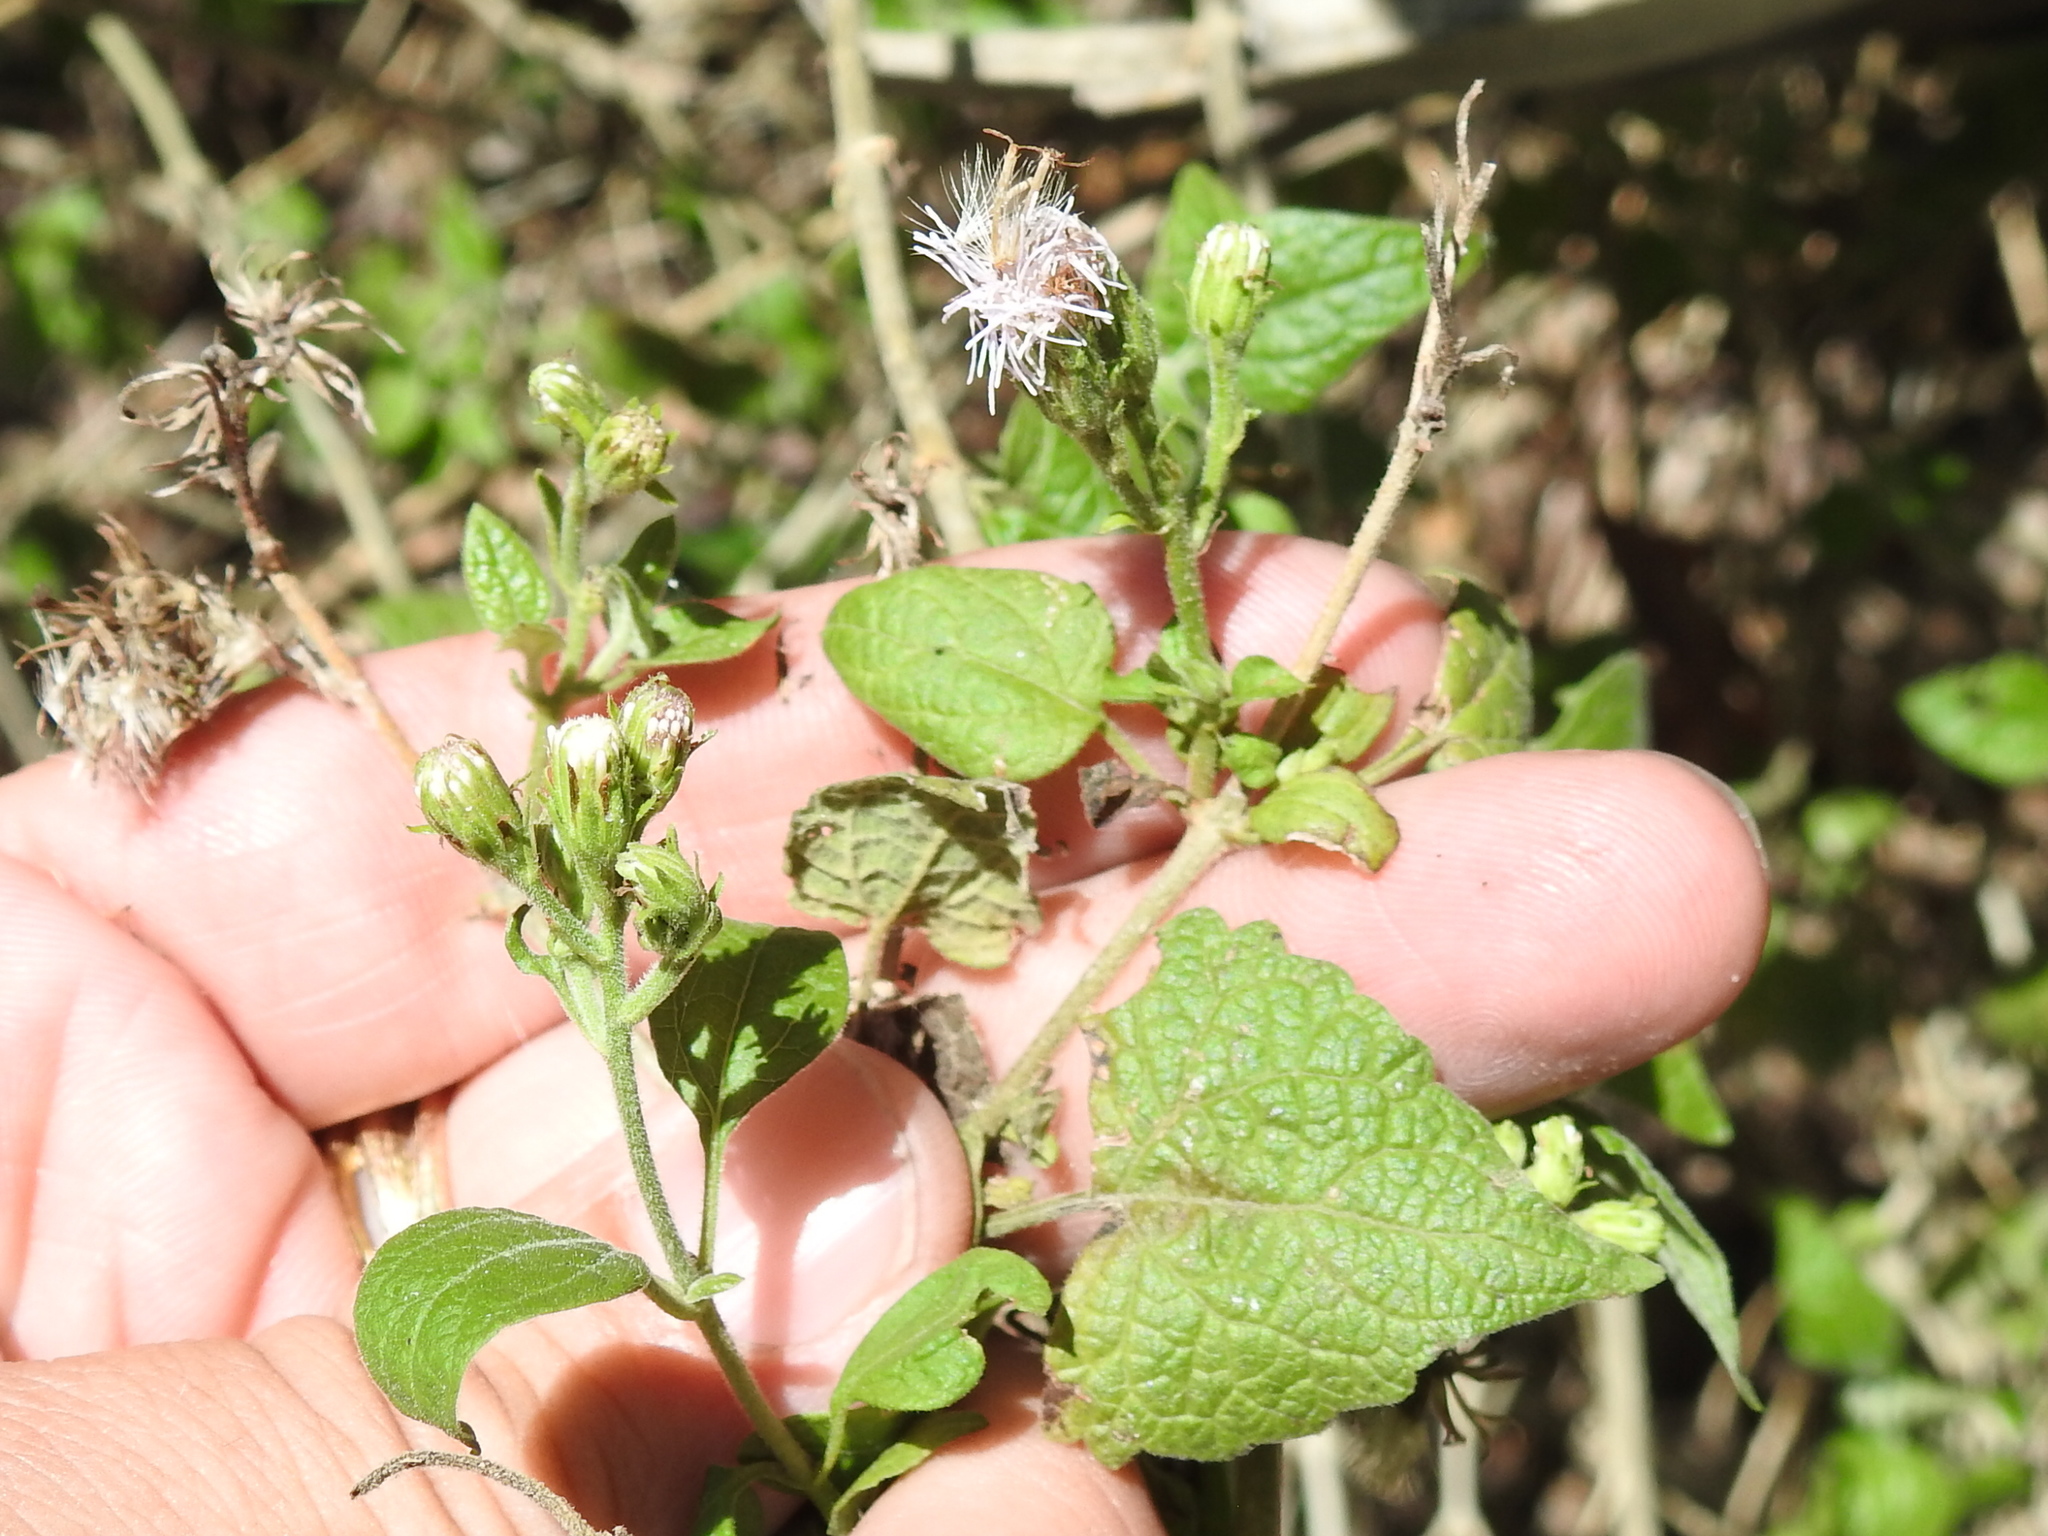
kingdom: Plantae
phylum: Tracheophyta
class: Magnoliopsida
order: Asterales
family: Asteraceae
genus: Tamaulipa
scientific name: Tamaulipa azurea
